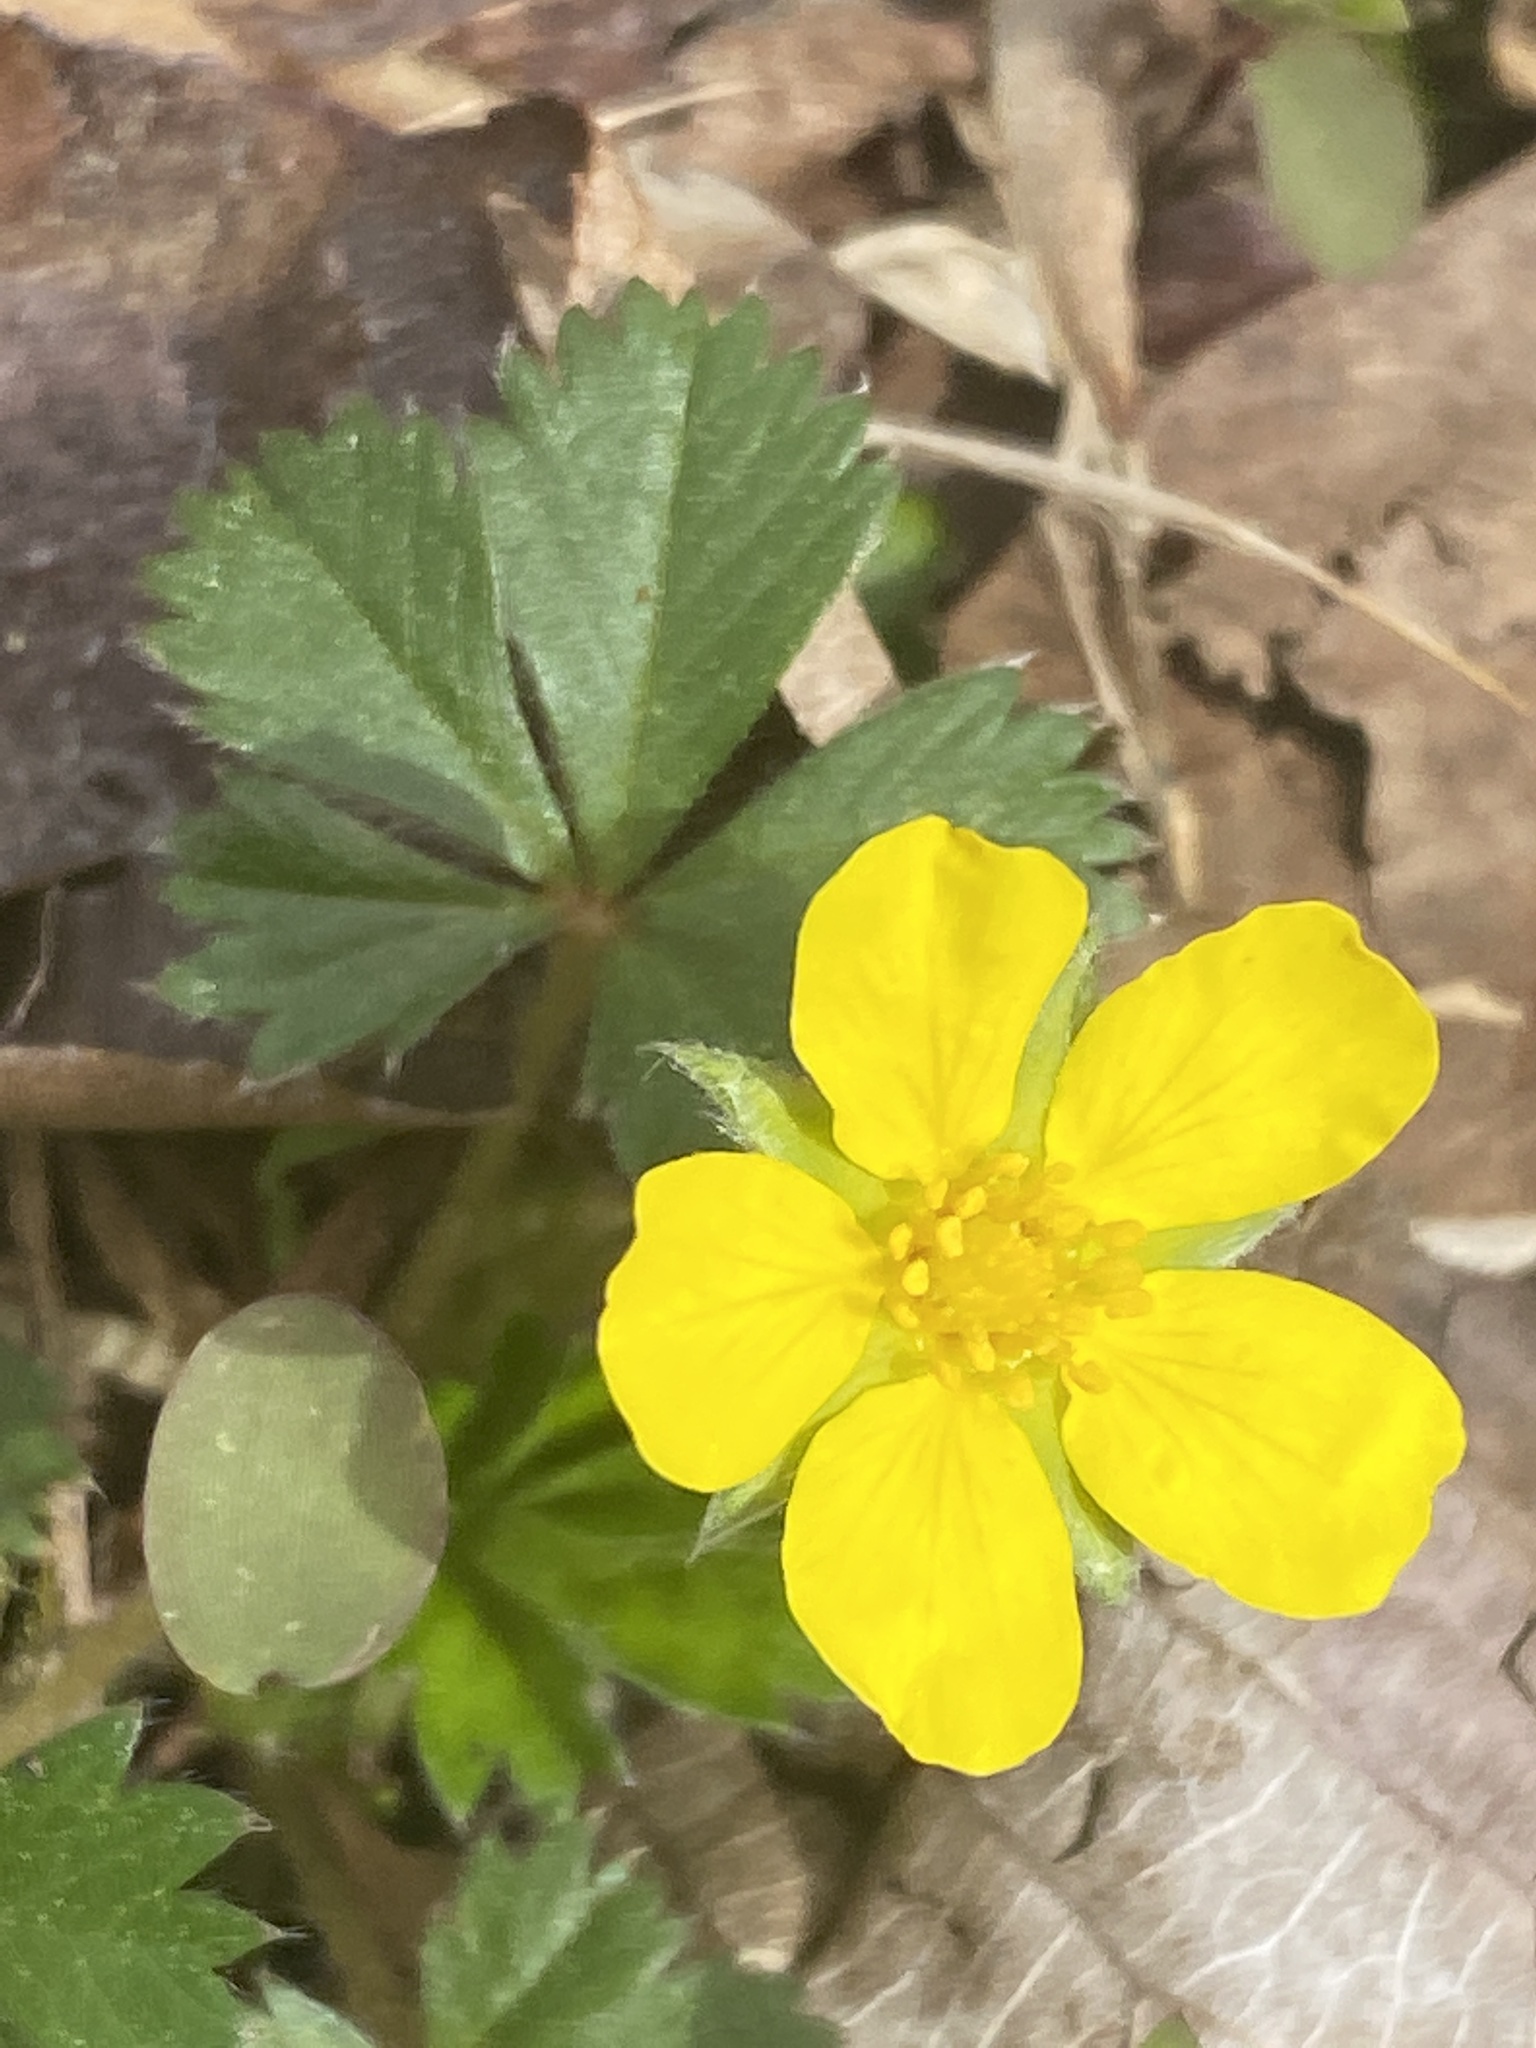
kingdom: Plantae
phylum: Tracheophyta
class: Magnoliopsida
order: Rosales
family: Rosaceae
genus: Potentilla
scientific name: Potentilla canadensis
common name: Canada cinquefoil
